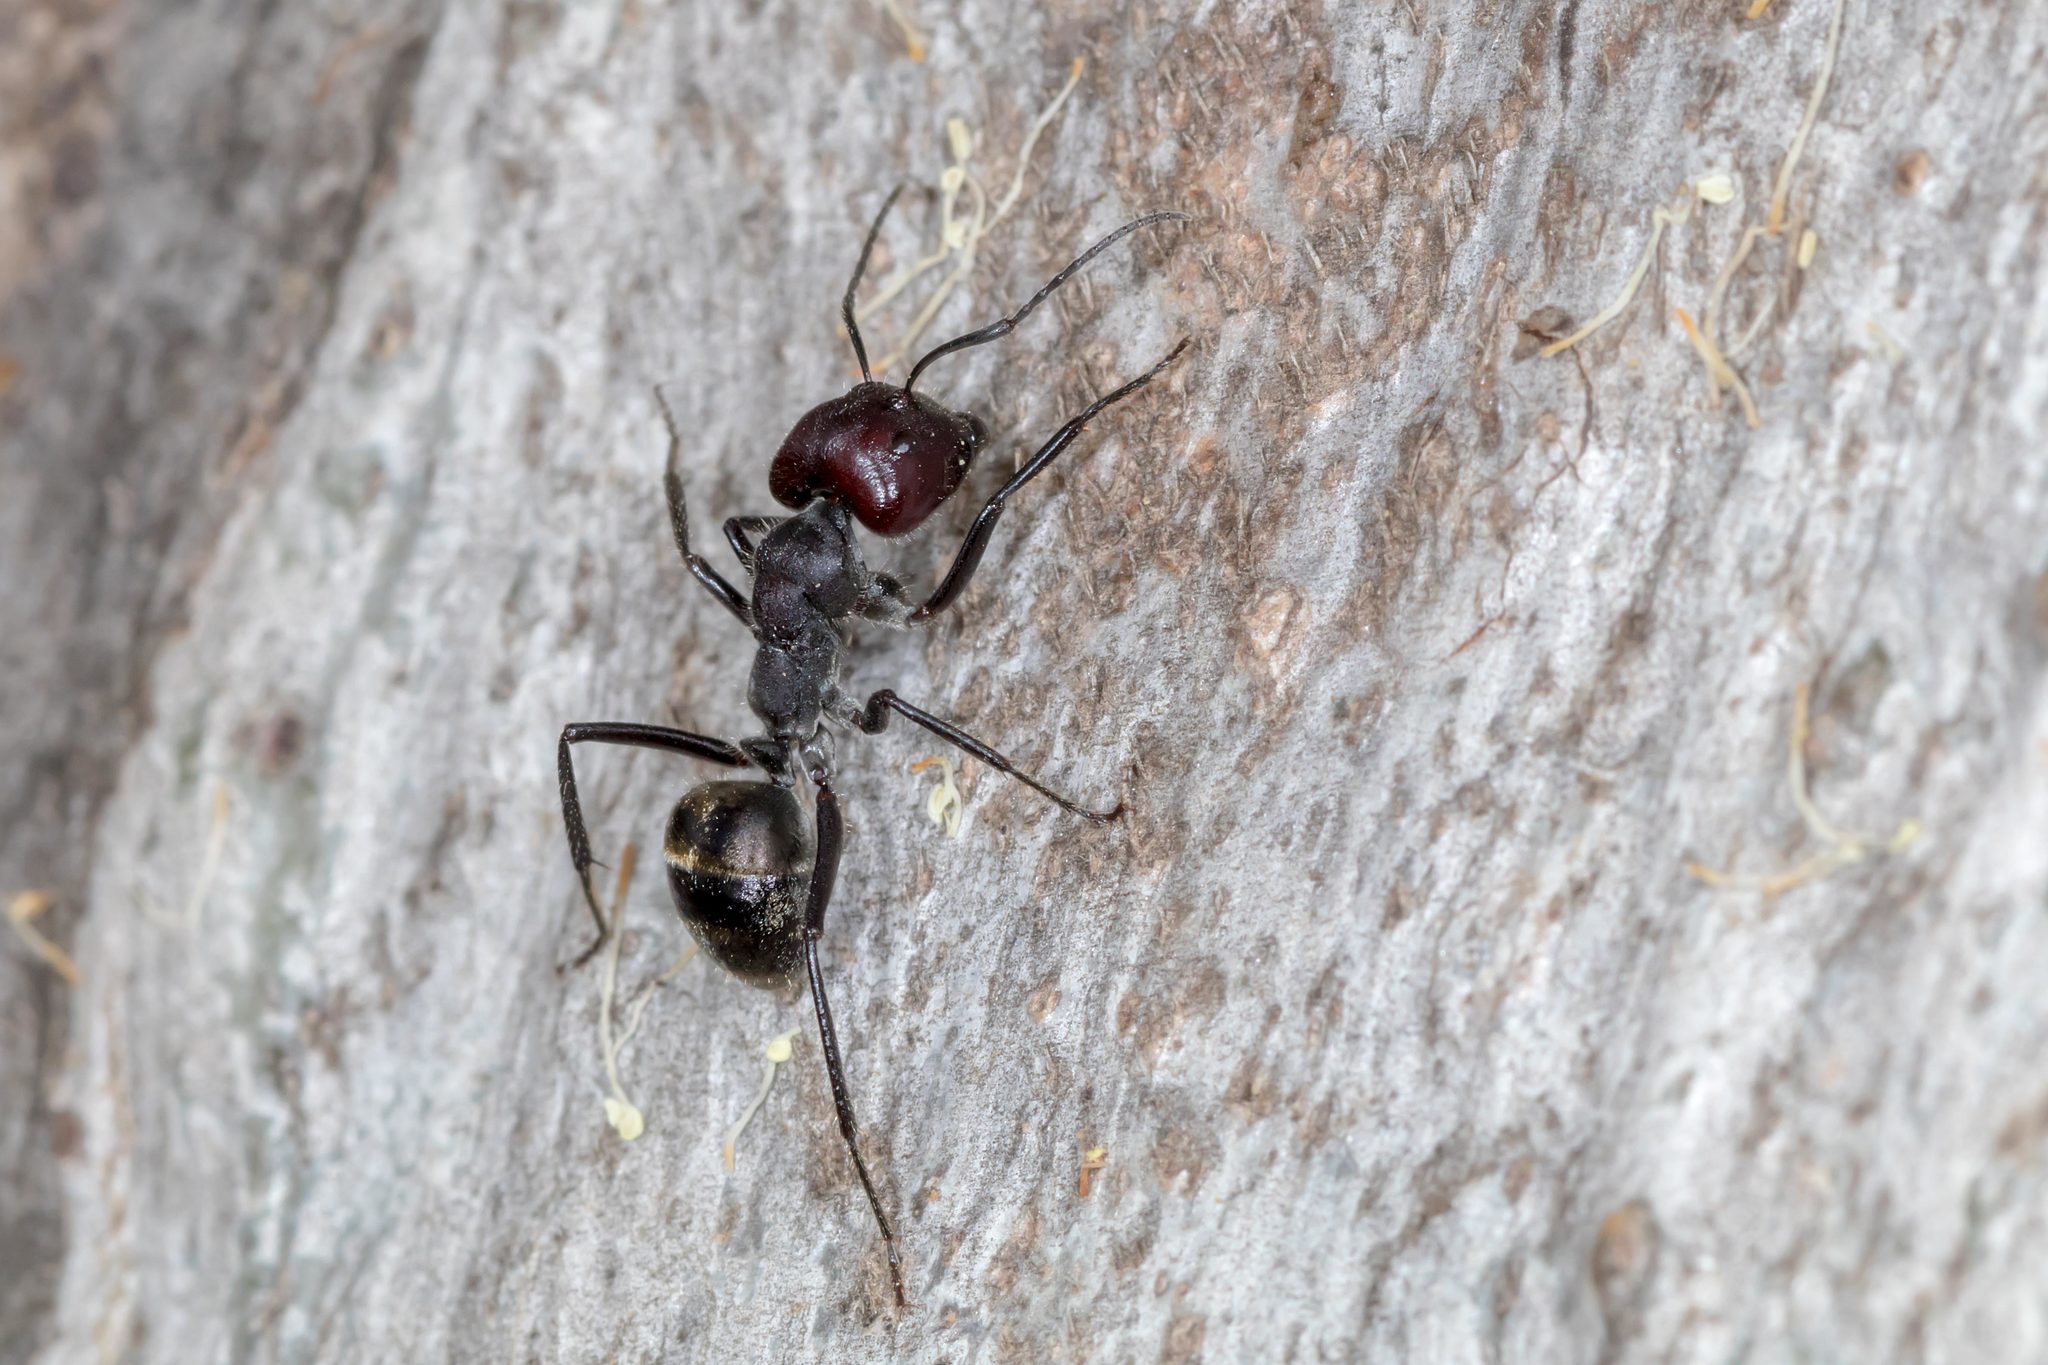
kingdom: Animalia
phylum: Arthropoda
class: Insecta
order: Hymenoptera
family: Formicidae
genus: Camponotus
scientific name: Camponotus suffusus
